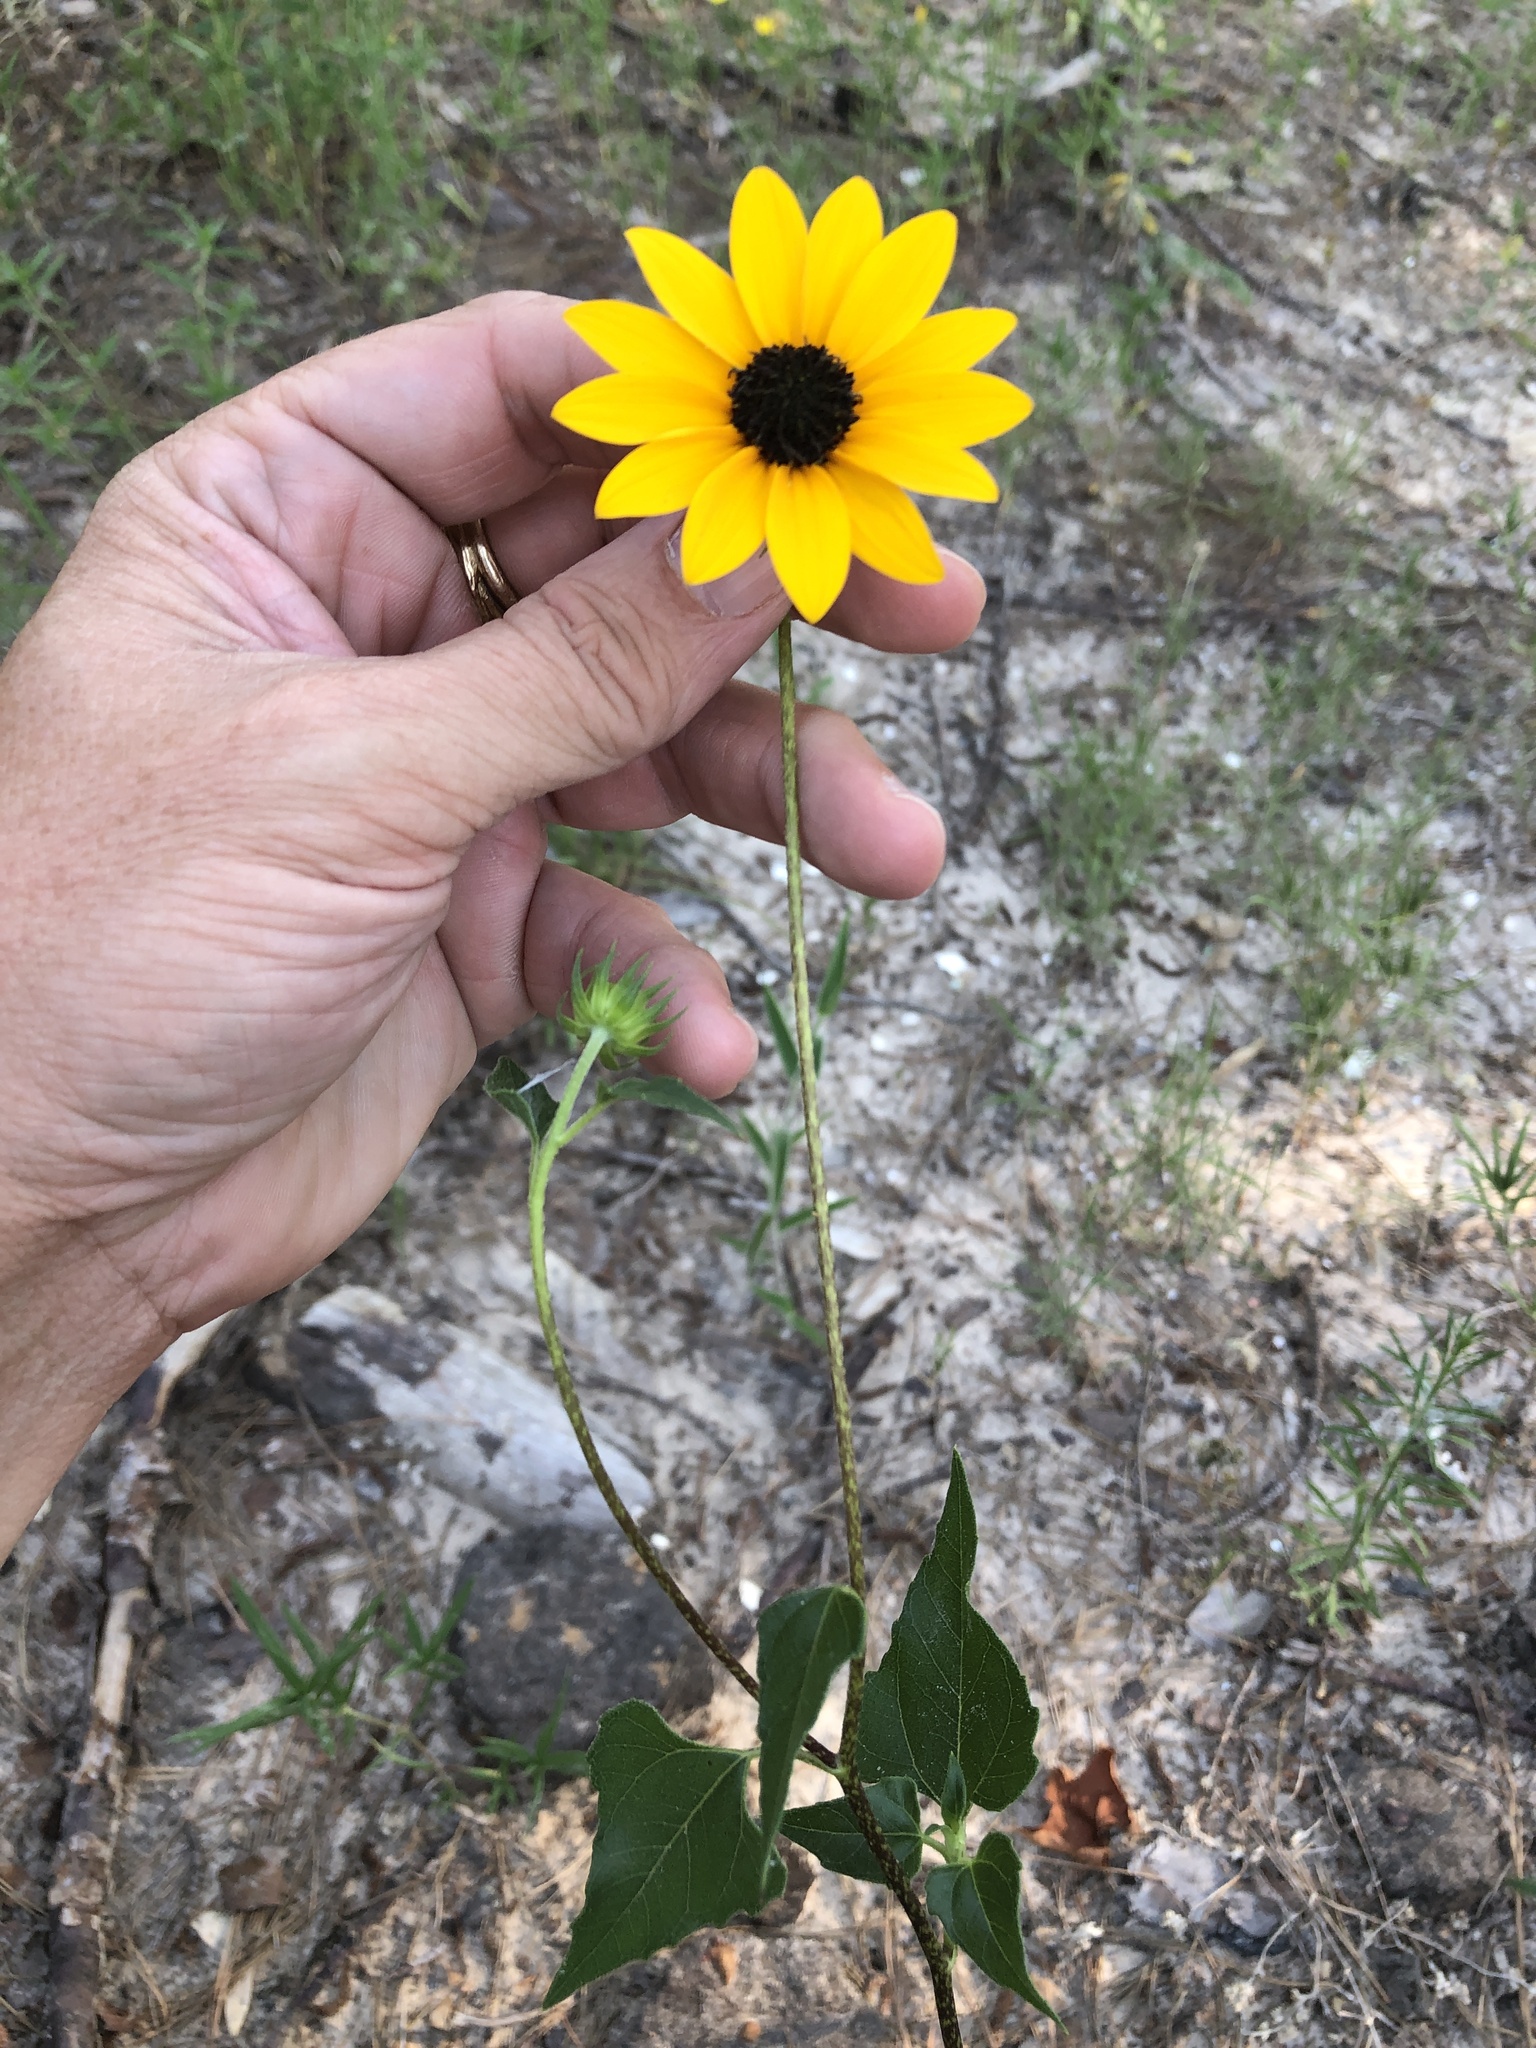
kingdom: Plantae
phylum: Tracheophyta
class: Magnoliopsida
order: Asterales
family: Asteraceae
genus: Helianthus
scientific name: Helianthus debilis
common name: Weak sunflower
